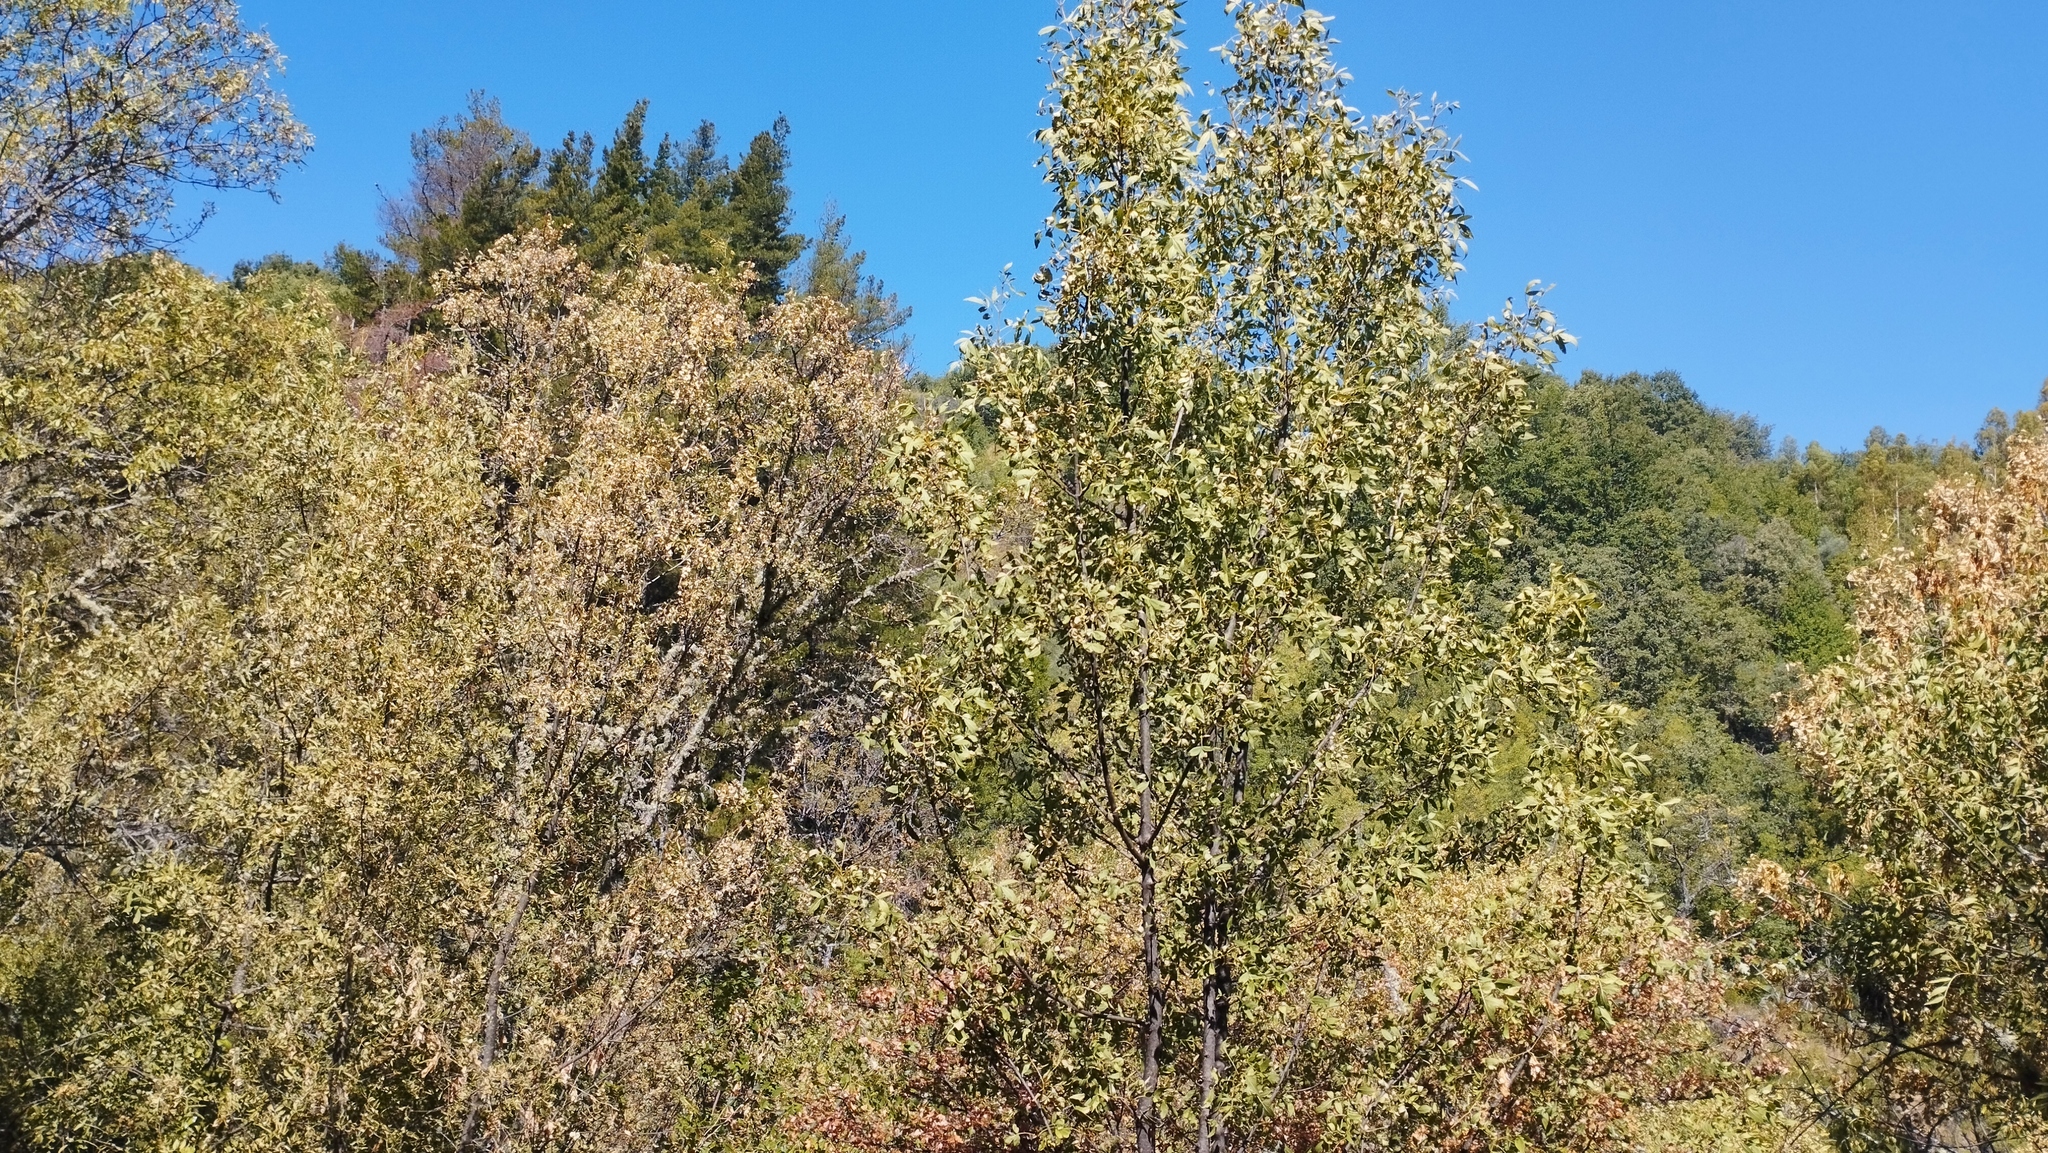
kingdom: Plantae
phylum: Tracheophyta
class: Magnoliopsida
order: Lamiales
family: Oleaceae
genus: Fraxinus
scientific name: Fraxinus angustifolia
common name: Narrow-leafed ash
